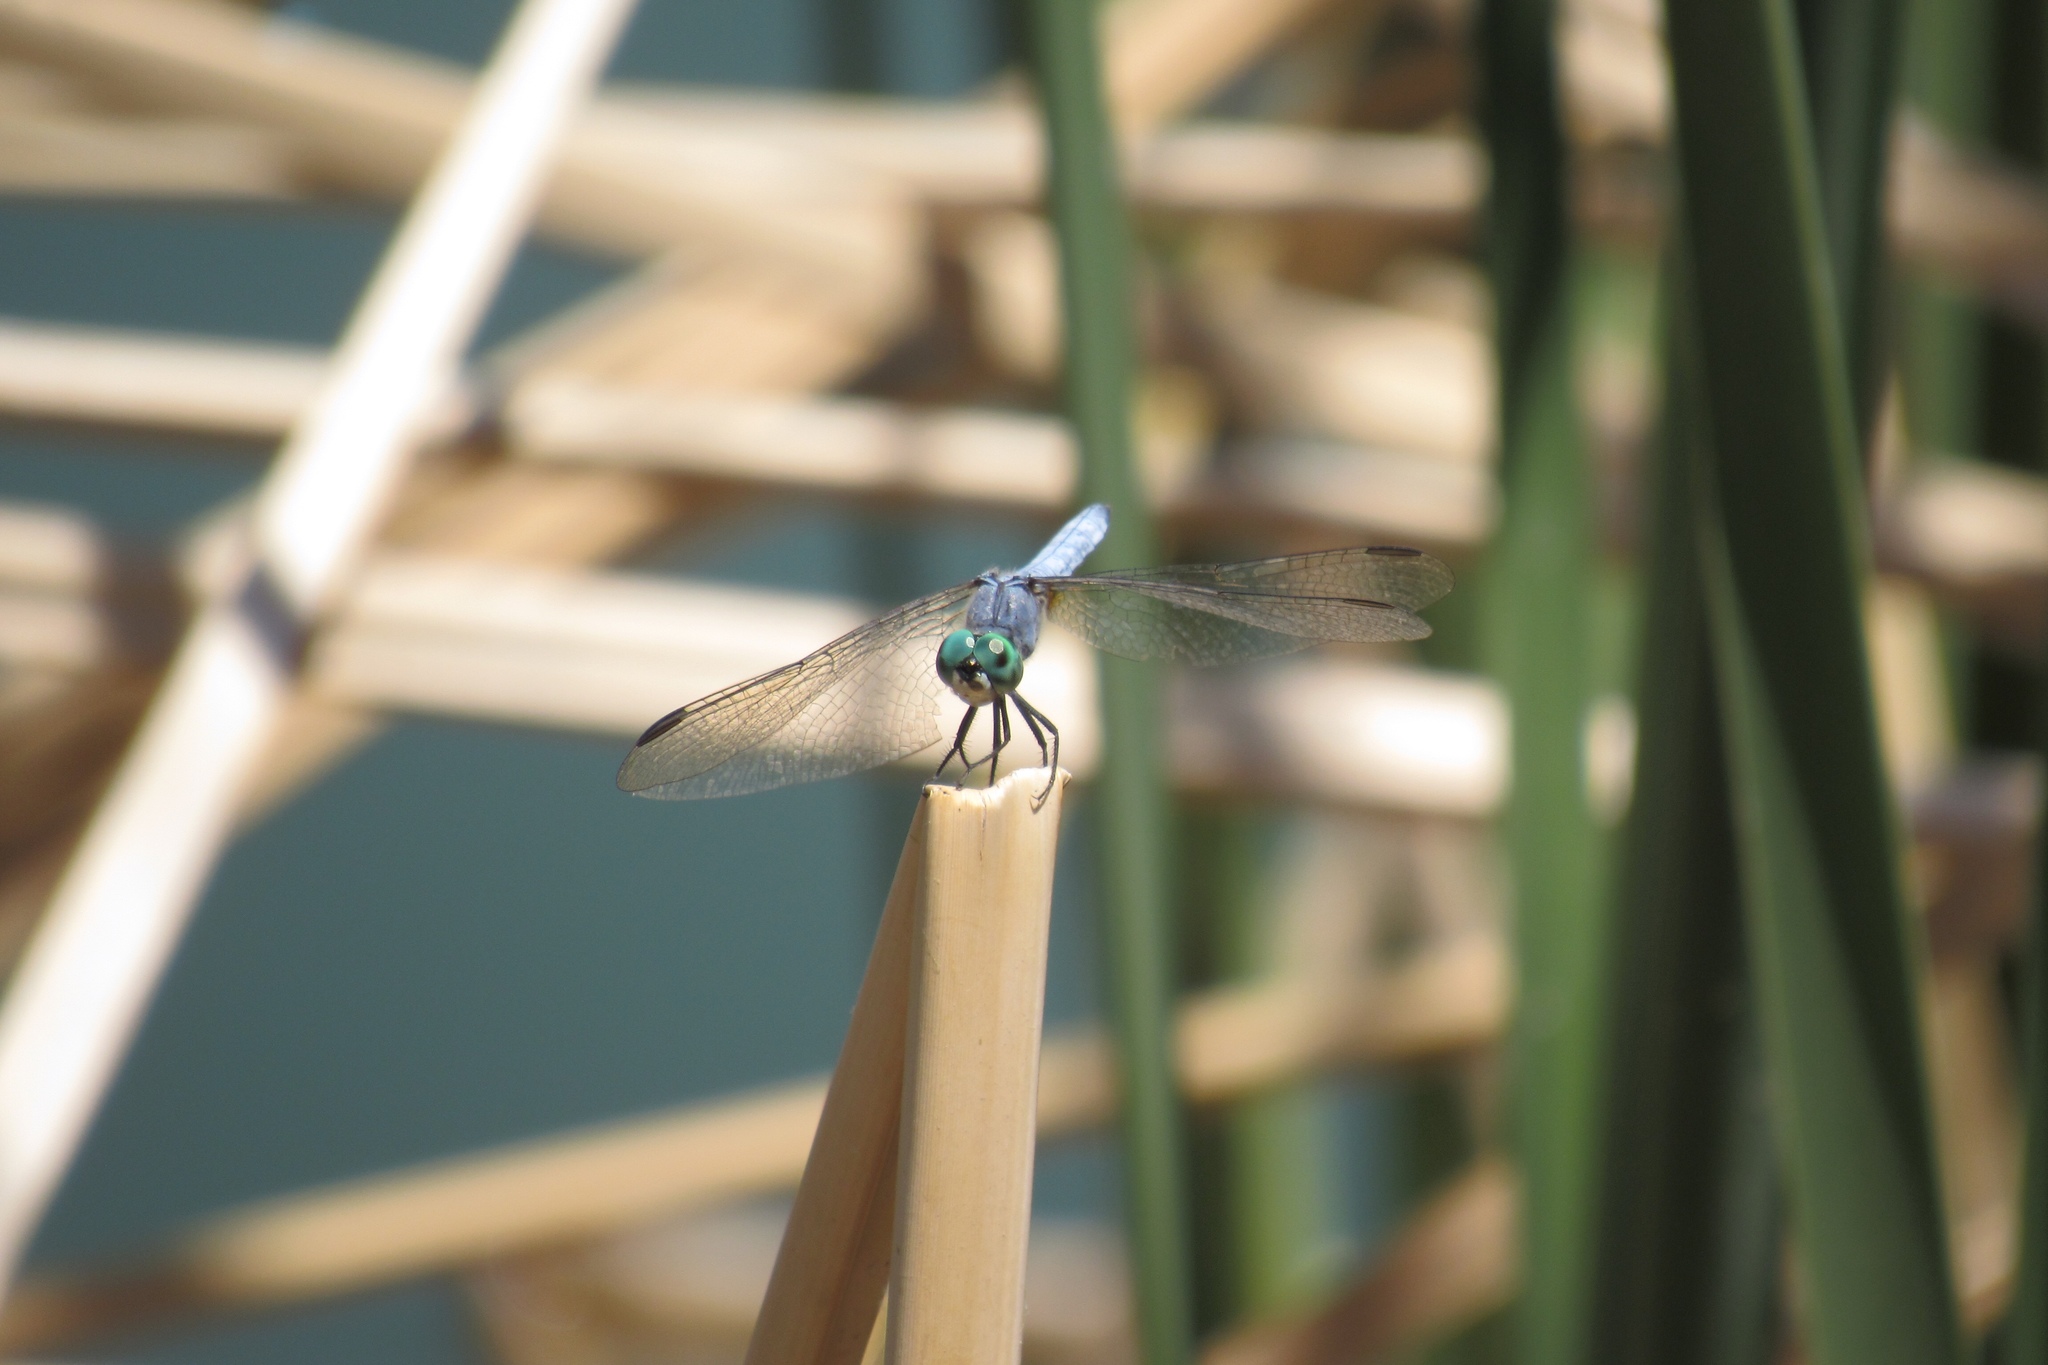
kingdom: Animalia
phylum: Arthropoda
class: Insecta
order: Odonata
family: Libellulidae
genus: Pachydiplax
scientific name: Pachydiplax longipennis
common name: Blue dasher
